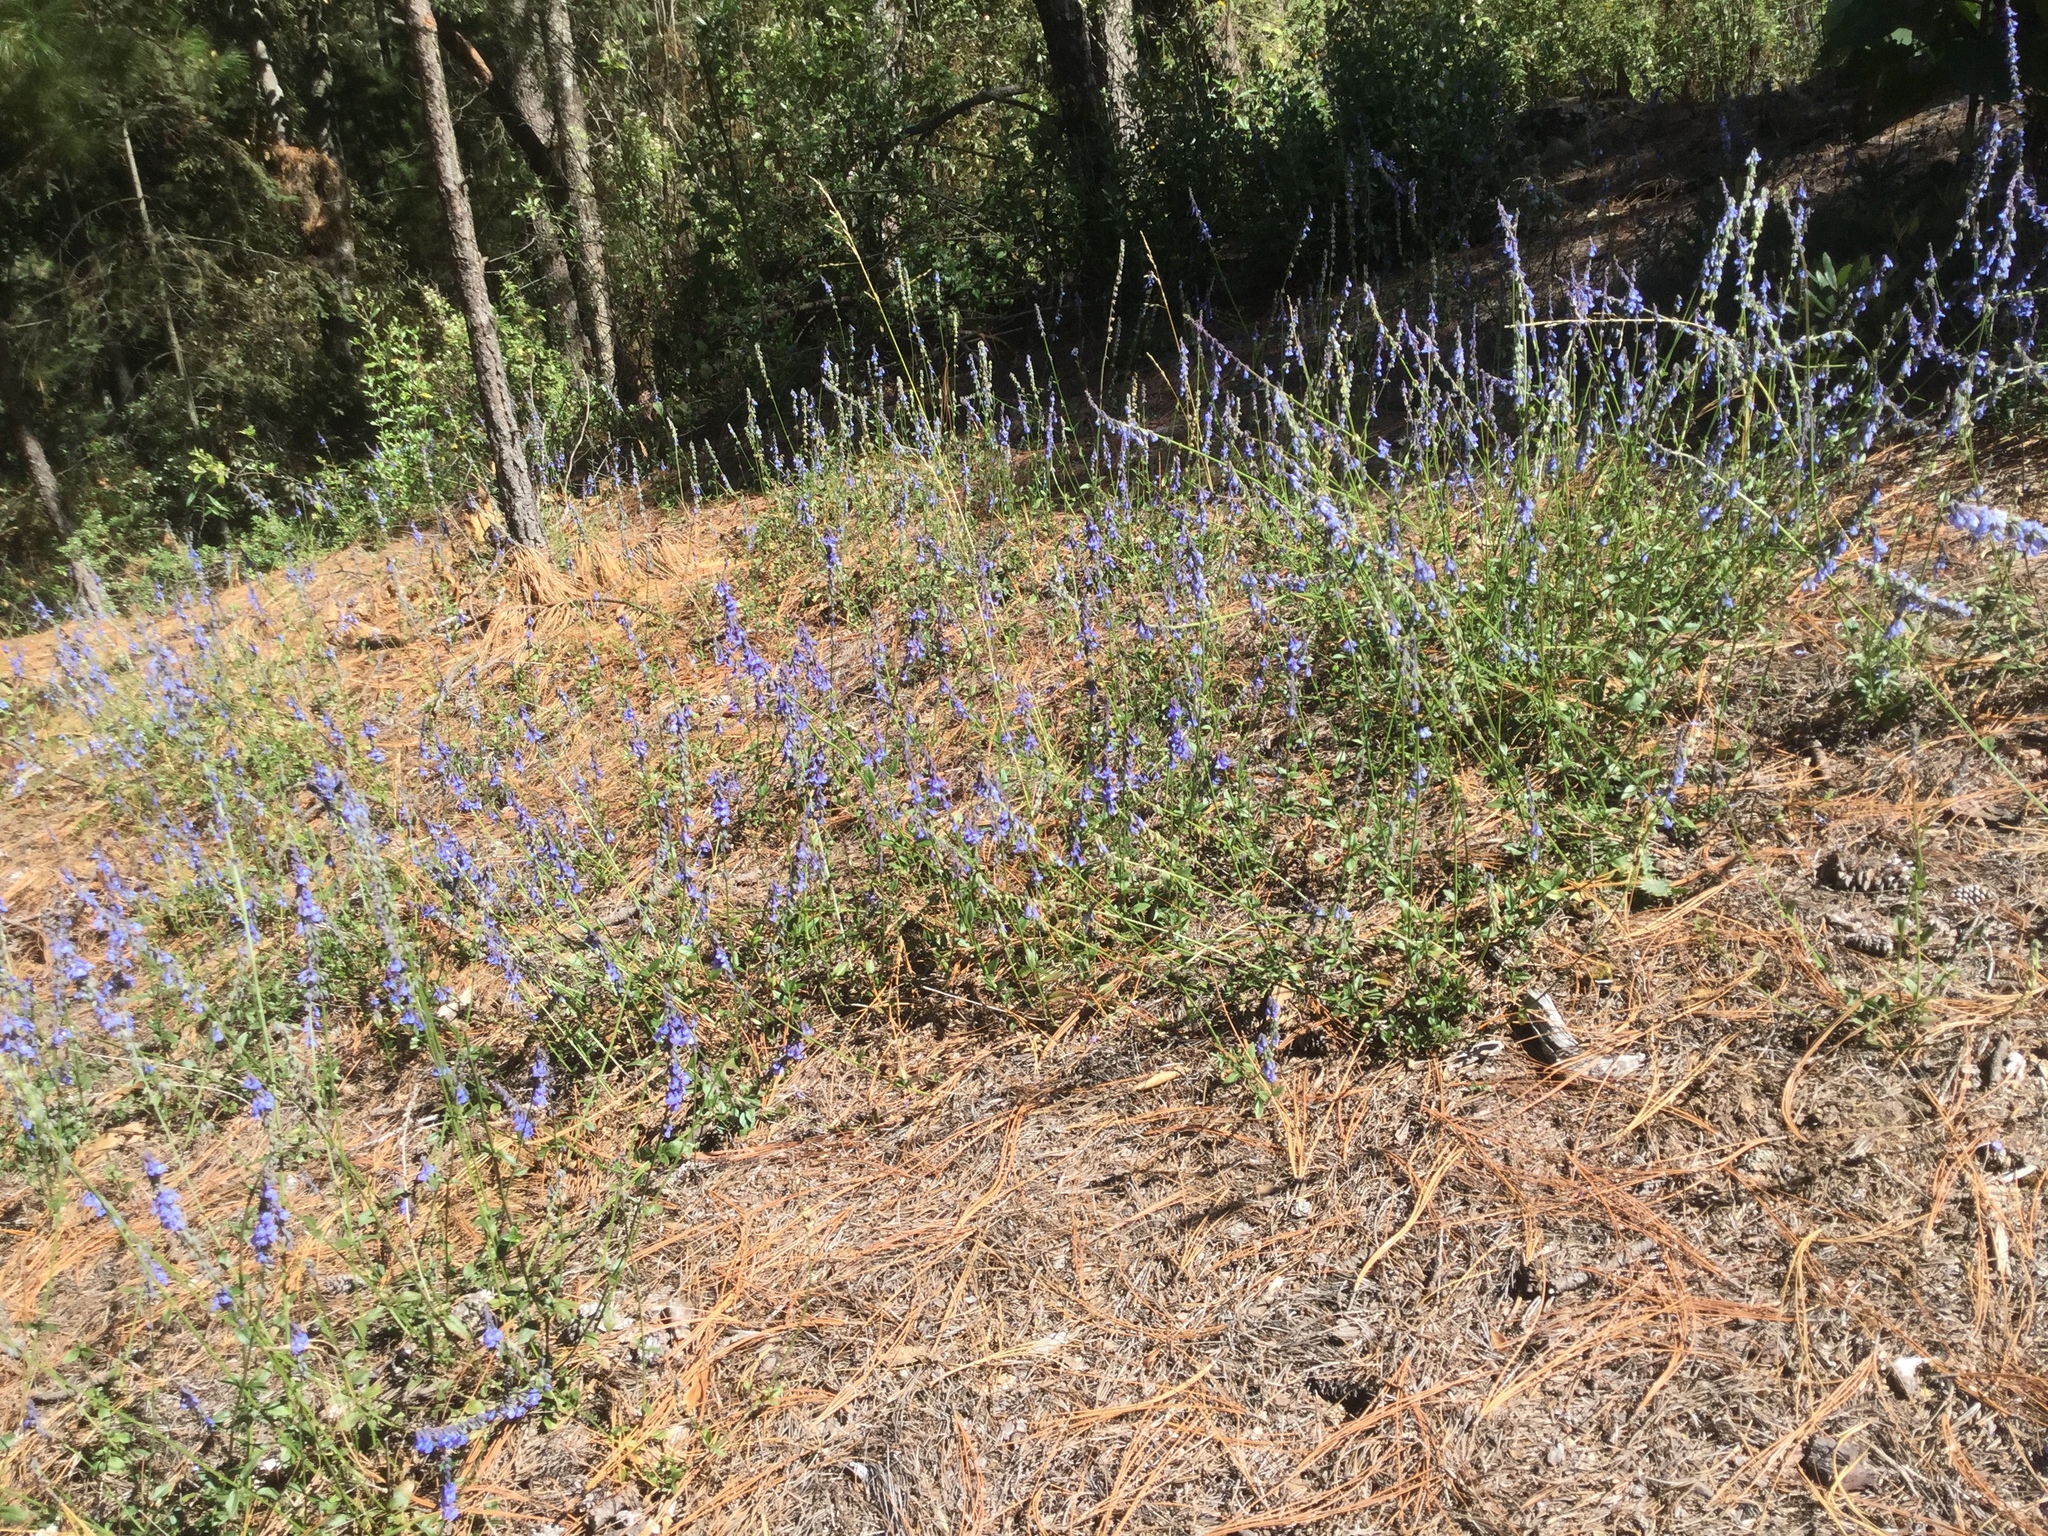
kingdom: Plantae
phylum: Tracheophyta
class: Magnoliopsida
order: Lamiales
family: Lamiaceae
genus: Salvia
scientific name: Salvia helianthemifolia
